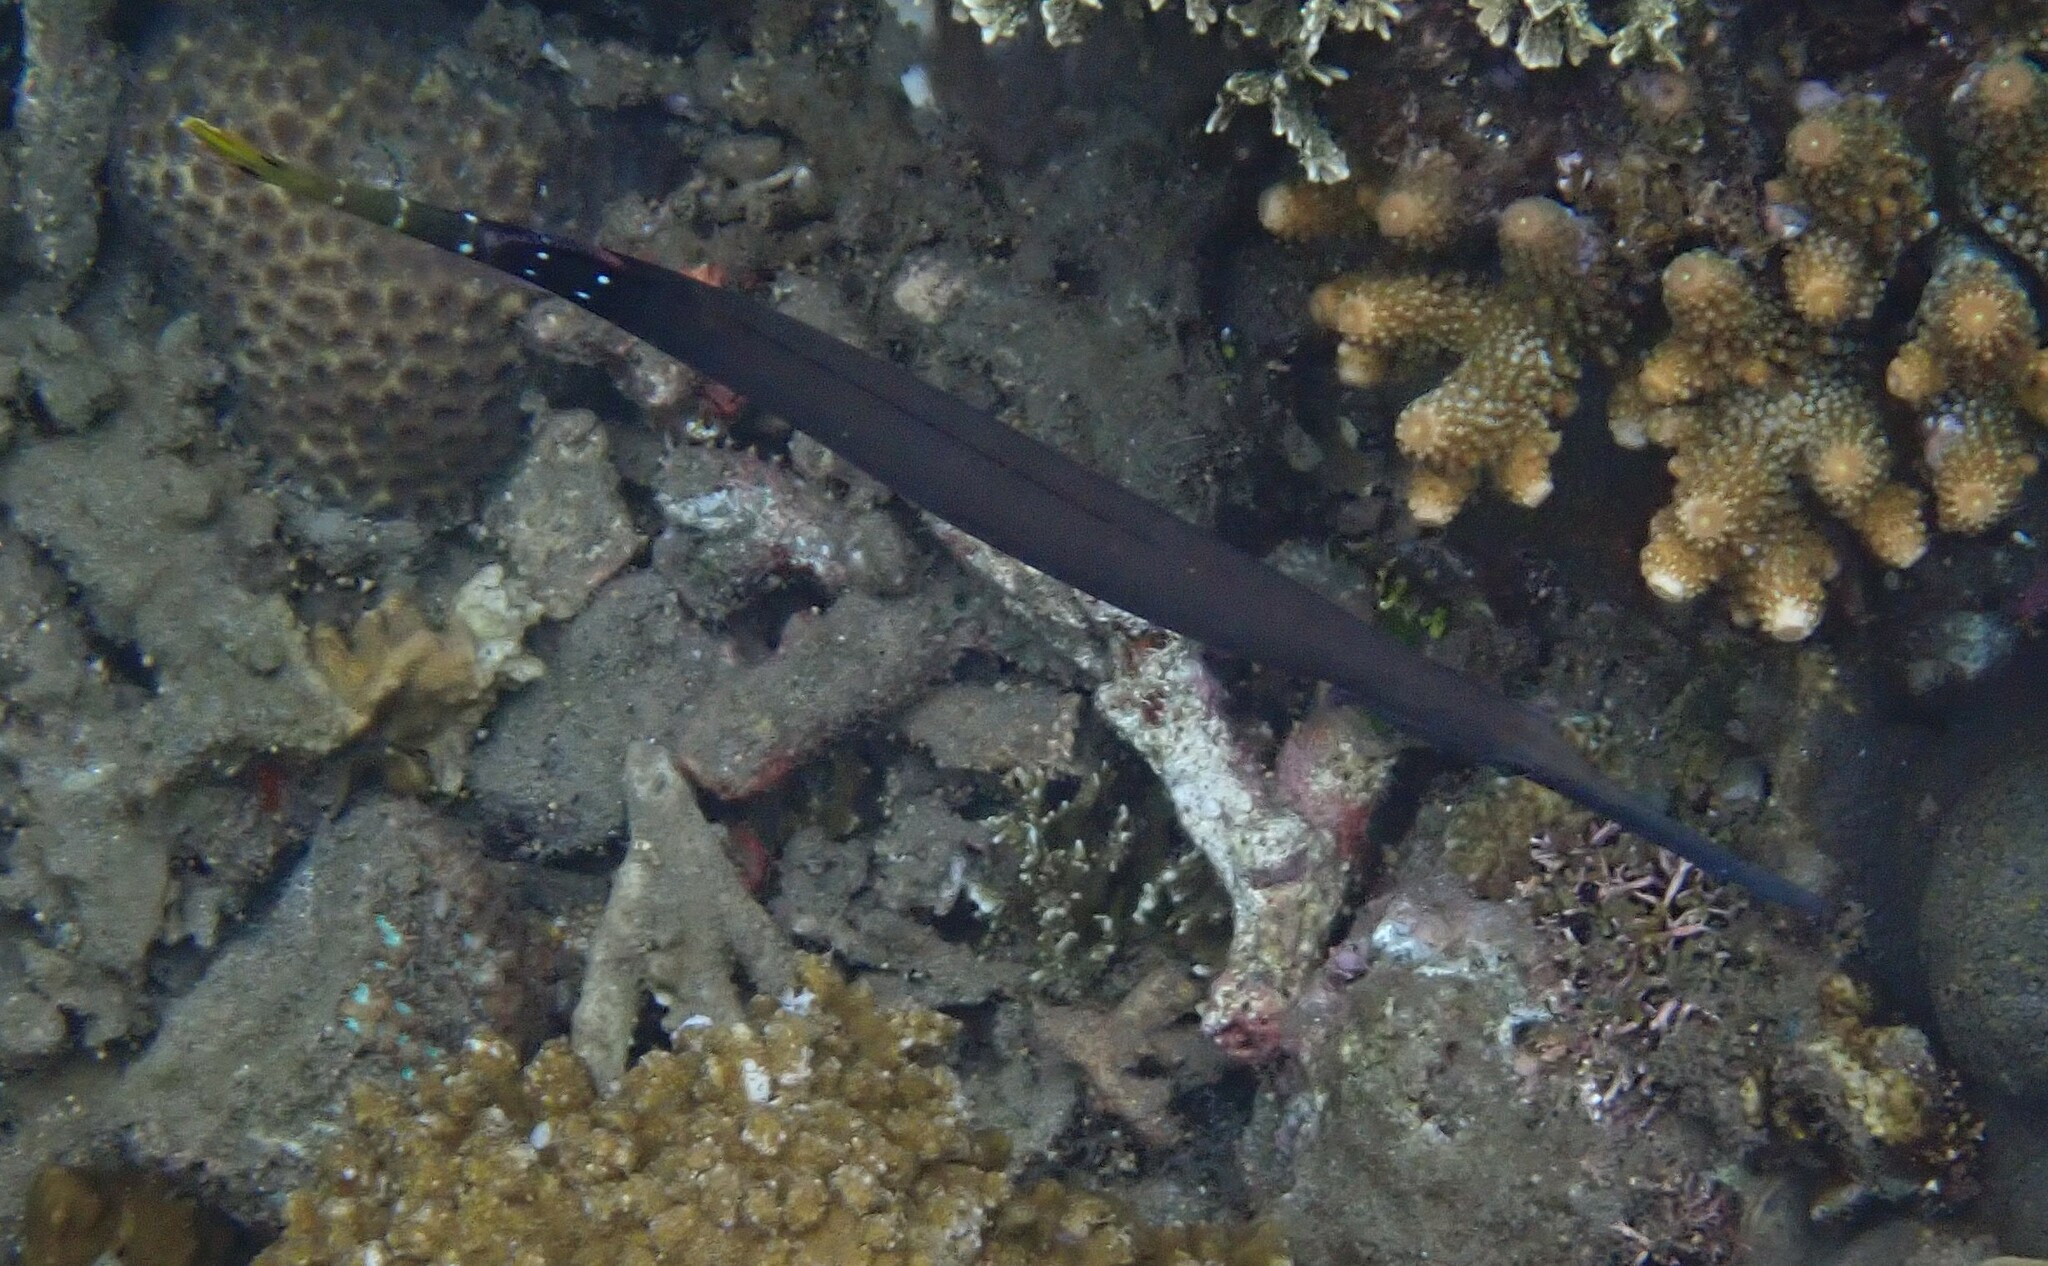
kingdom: Animalia
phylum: Chordata
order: Syngnathiformes
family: Aulostomidae
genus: Aulostomus
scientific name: Aulostomus chinensis
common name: Chinese trumpetfish
